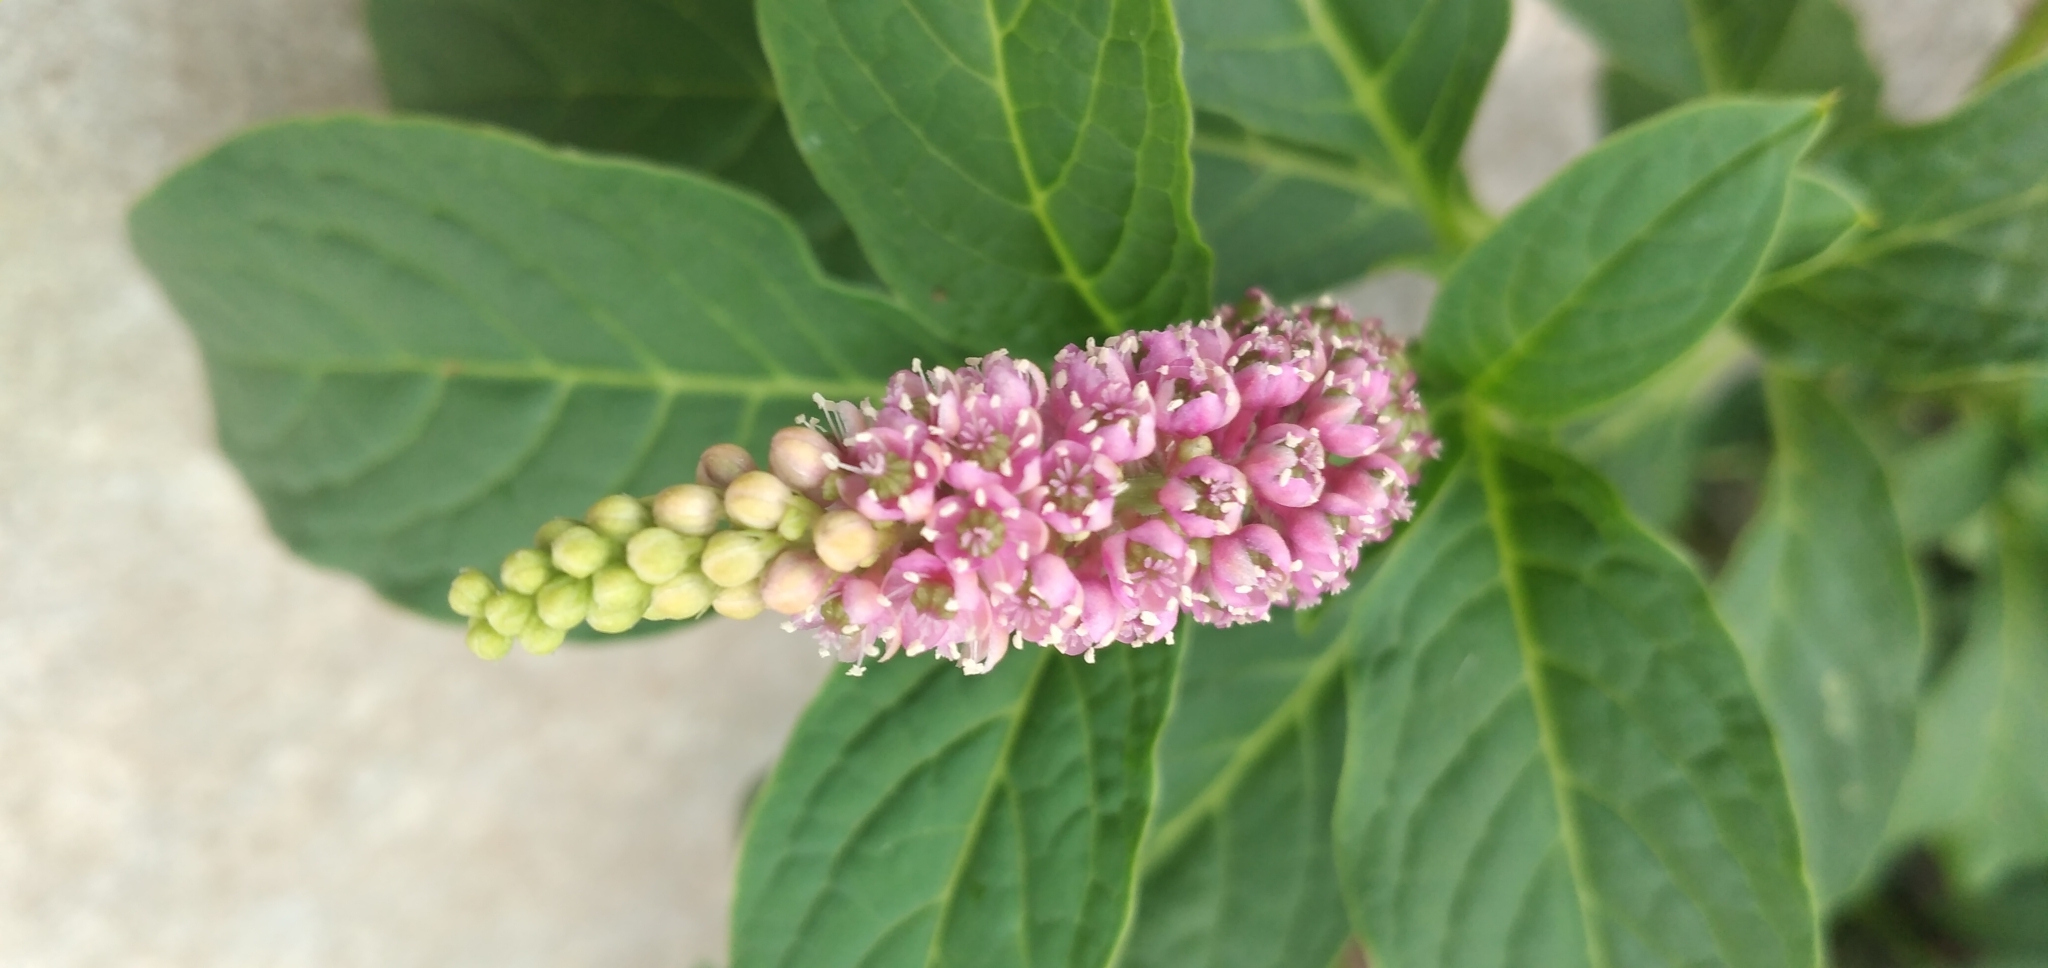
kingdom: Plantae
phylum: Tracheophyta
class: Magnoliopsida
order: Caryophyllales
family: Phytolaccaceae
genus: Phytolacca
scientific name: Phytolacca bogotensis
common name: Southern pokeweed
